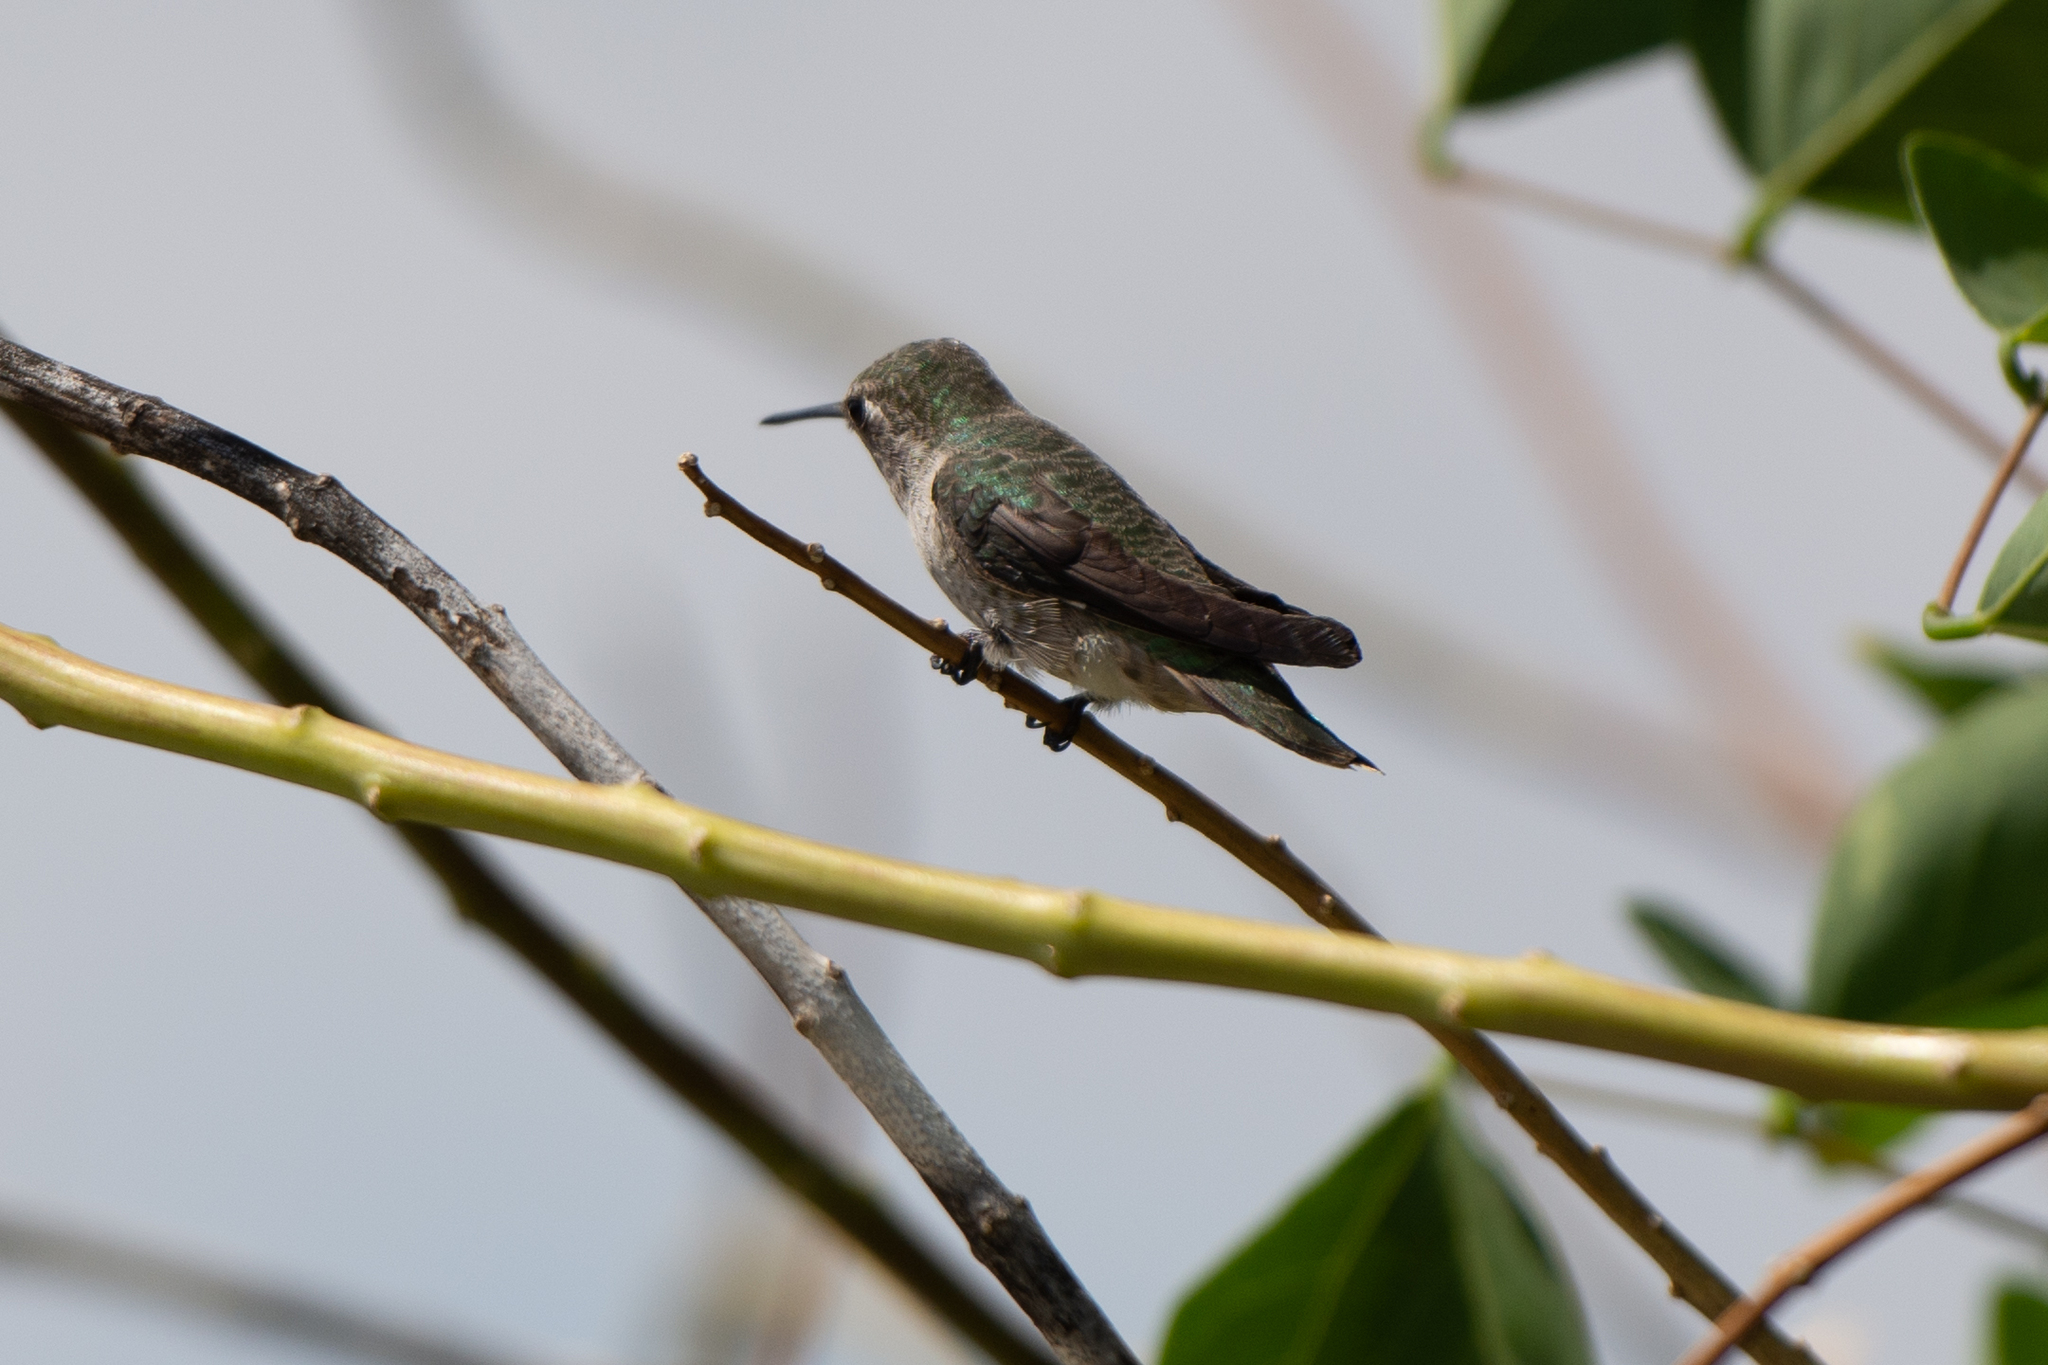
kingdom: Animalia
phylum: Chordata
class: Aves
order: Apodiformes
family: Trochilidae
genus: Calypte
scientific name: Calypte anna
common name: Anna's hummingbird
